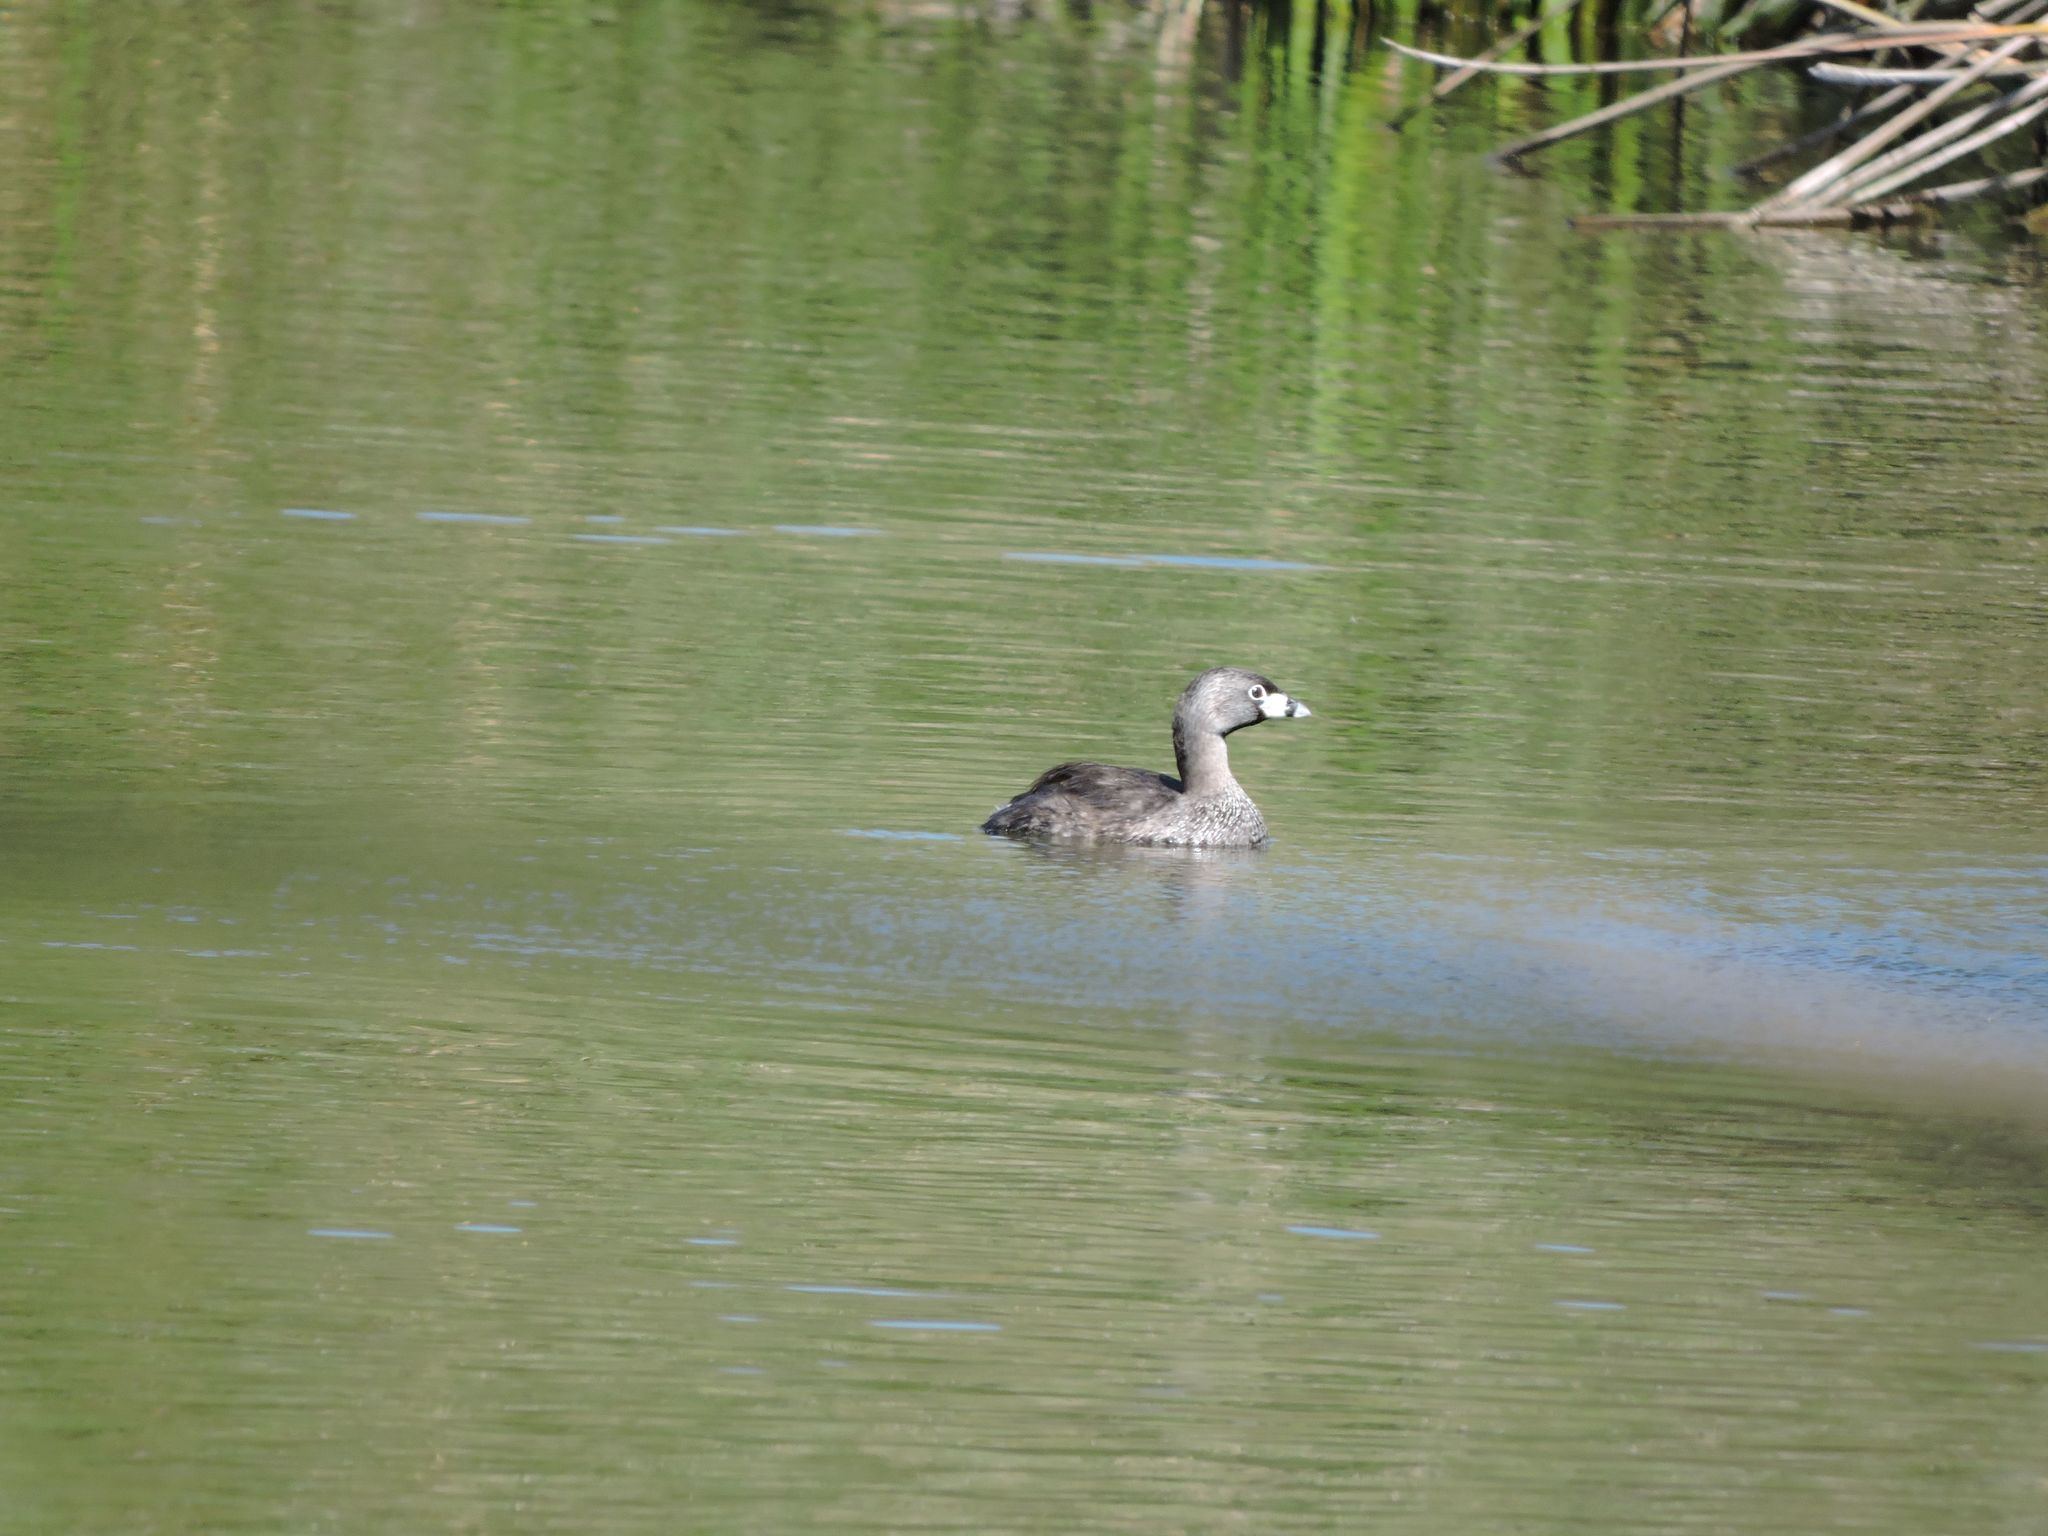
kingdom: Animalia
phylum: Chordata
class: Aves
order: Podicipediformes
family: Podicipedidae
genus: Podilymbus
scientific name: Podilymbus podiceps
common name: Pied-billed grebe
